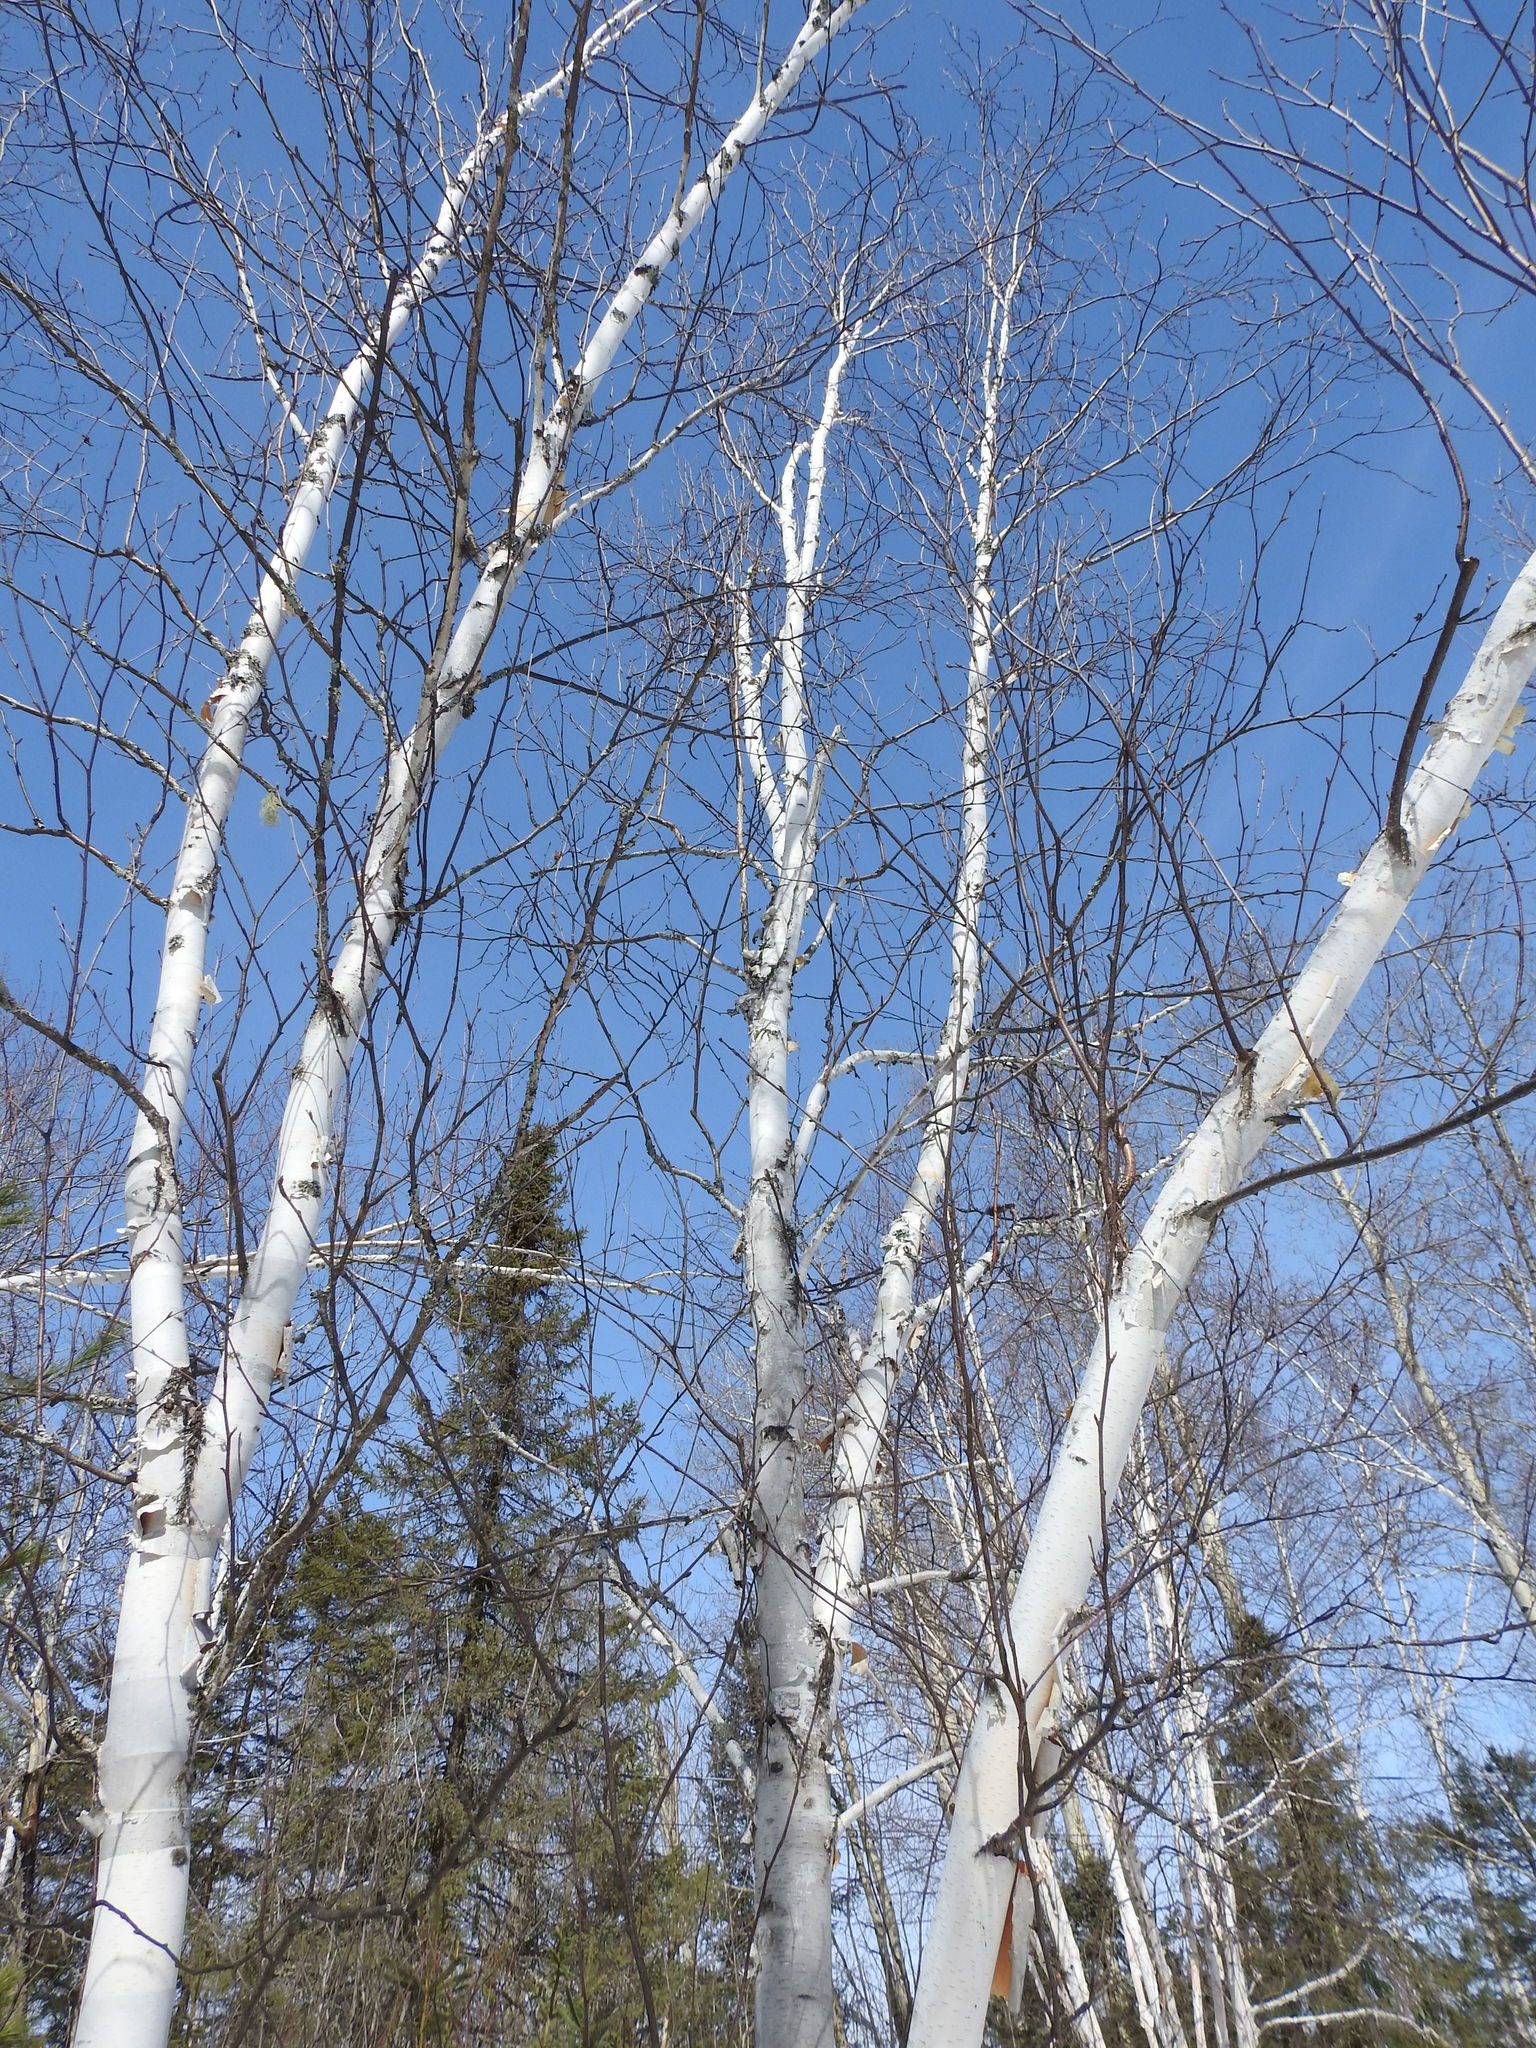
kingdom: Plantae
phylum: Tracheophyta
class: Magnoliopsida
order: Fagales
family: Betulaceae
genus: Betula
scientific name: Betula papyrifera
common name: Paper birch
